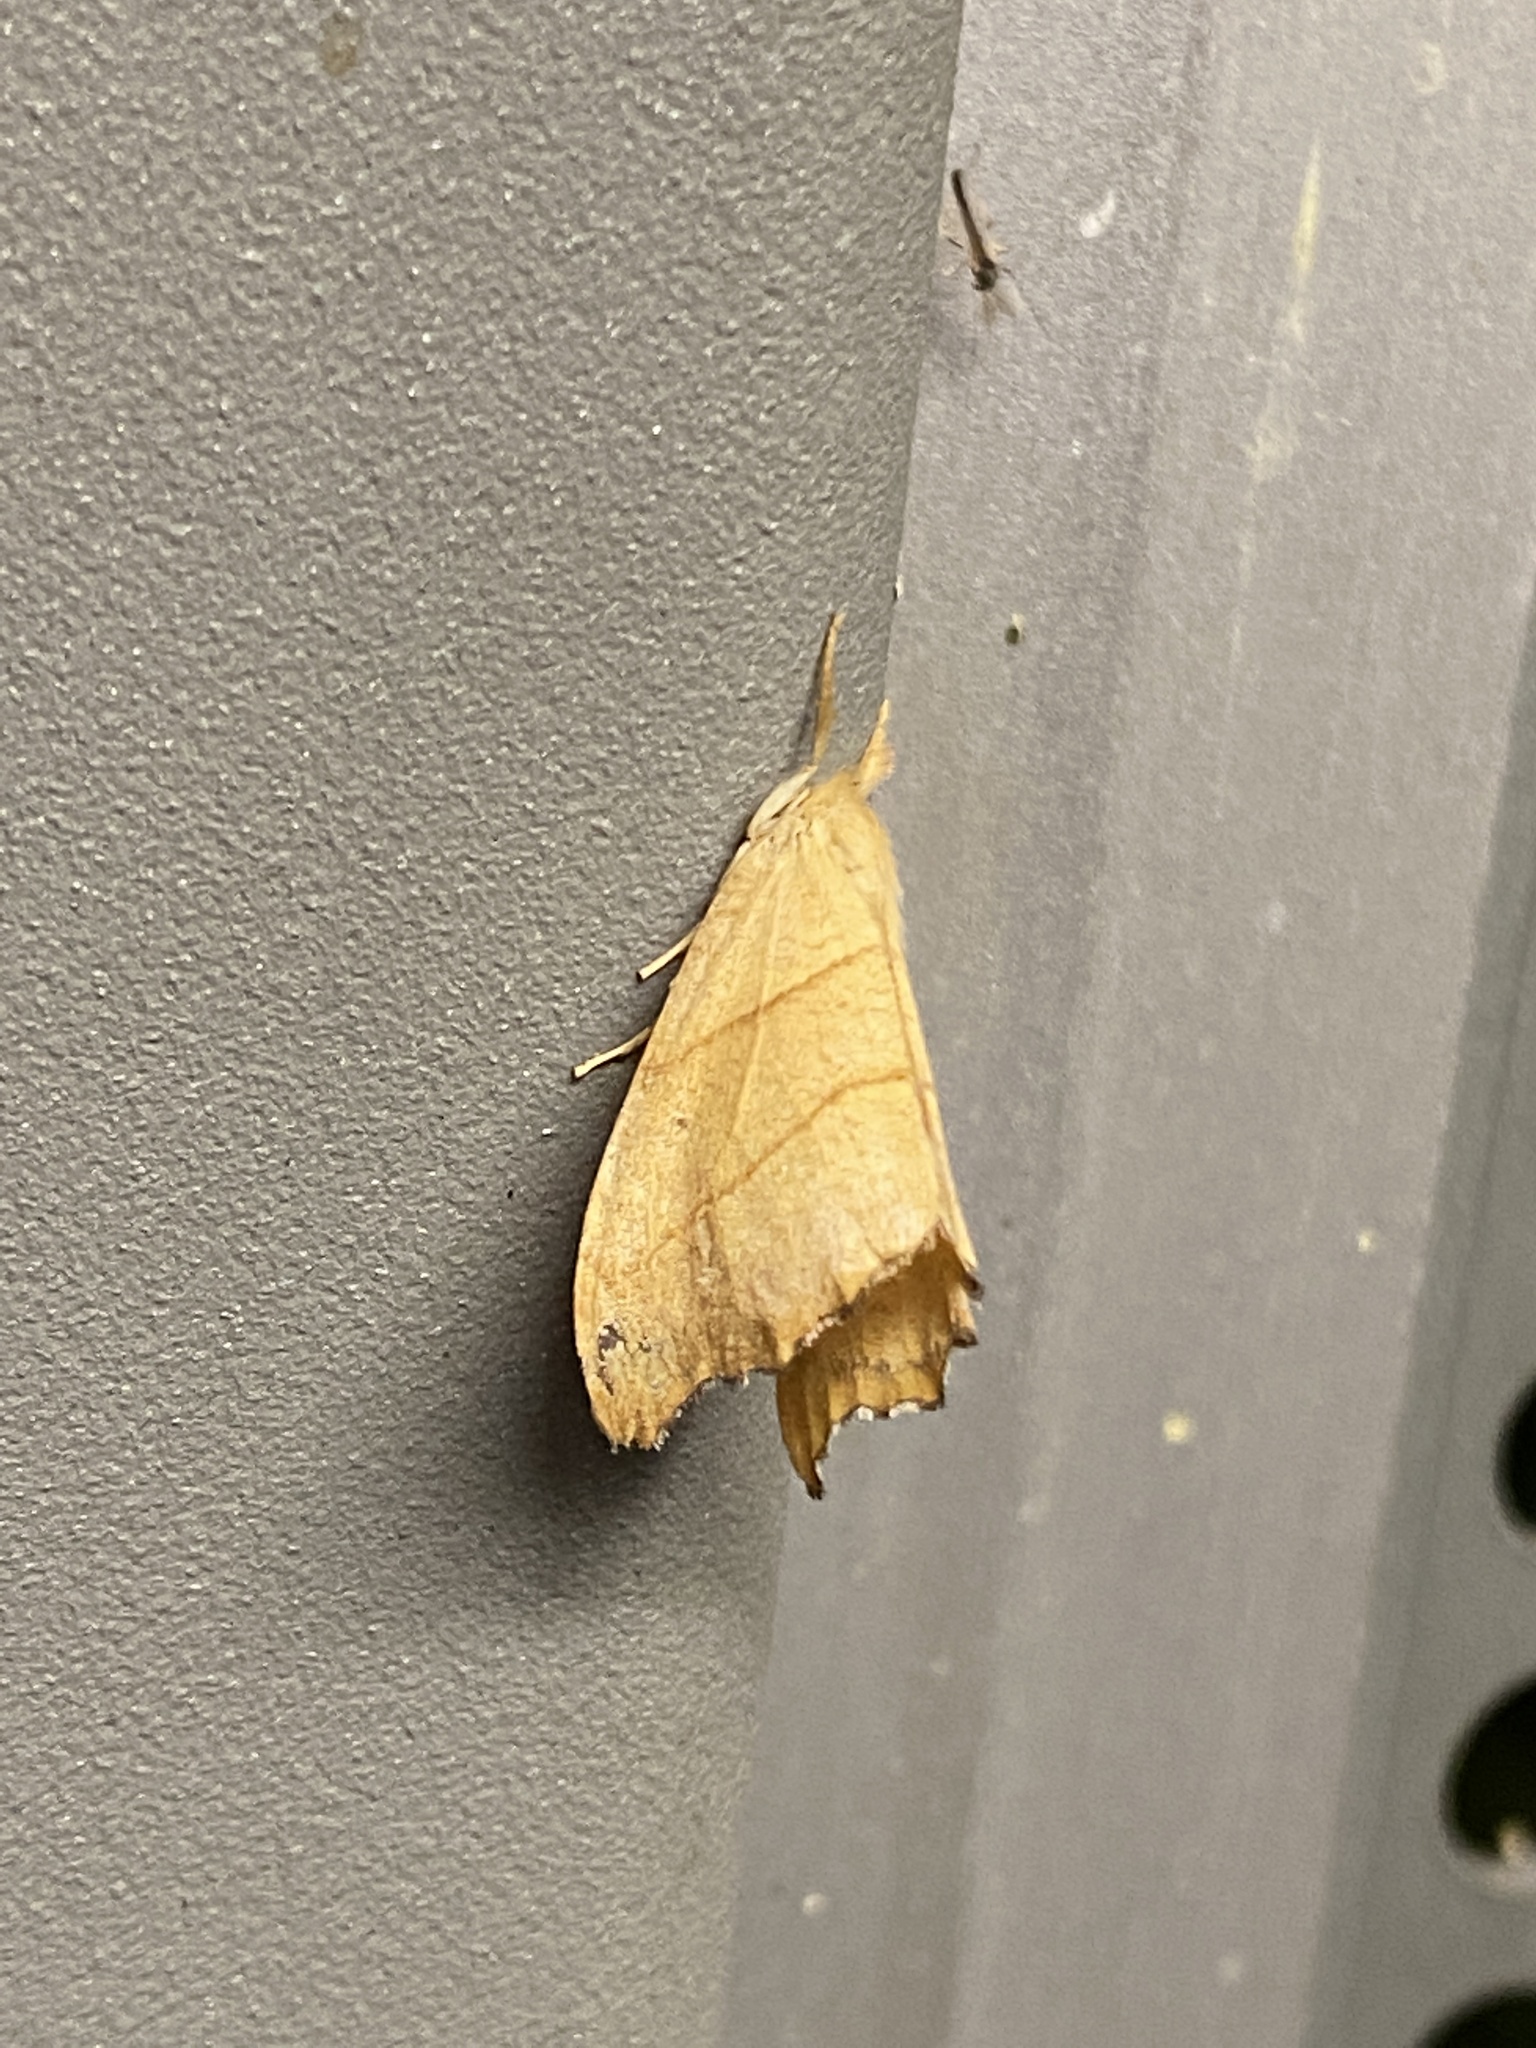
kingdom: Animalia
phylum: Arthropoda
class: Insecta
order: Lepidoptera
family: Drepanidae
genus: Falcaria
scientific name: Falcaria lacertinaria
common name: Scalloped hook-tip
